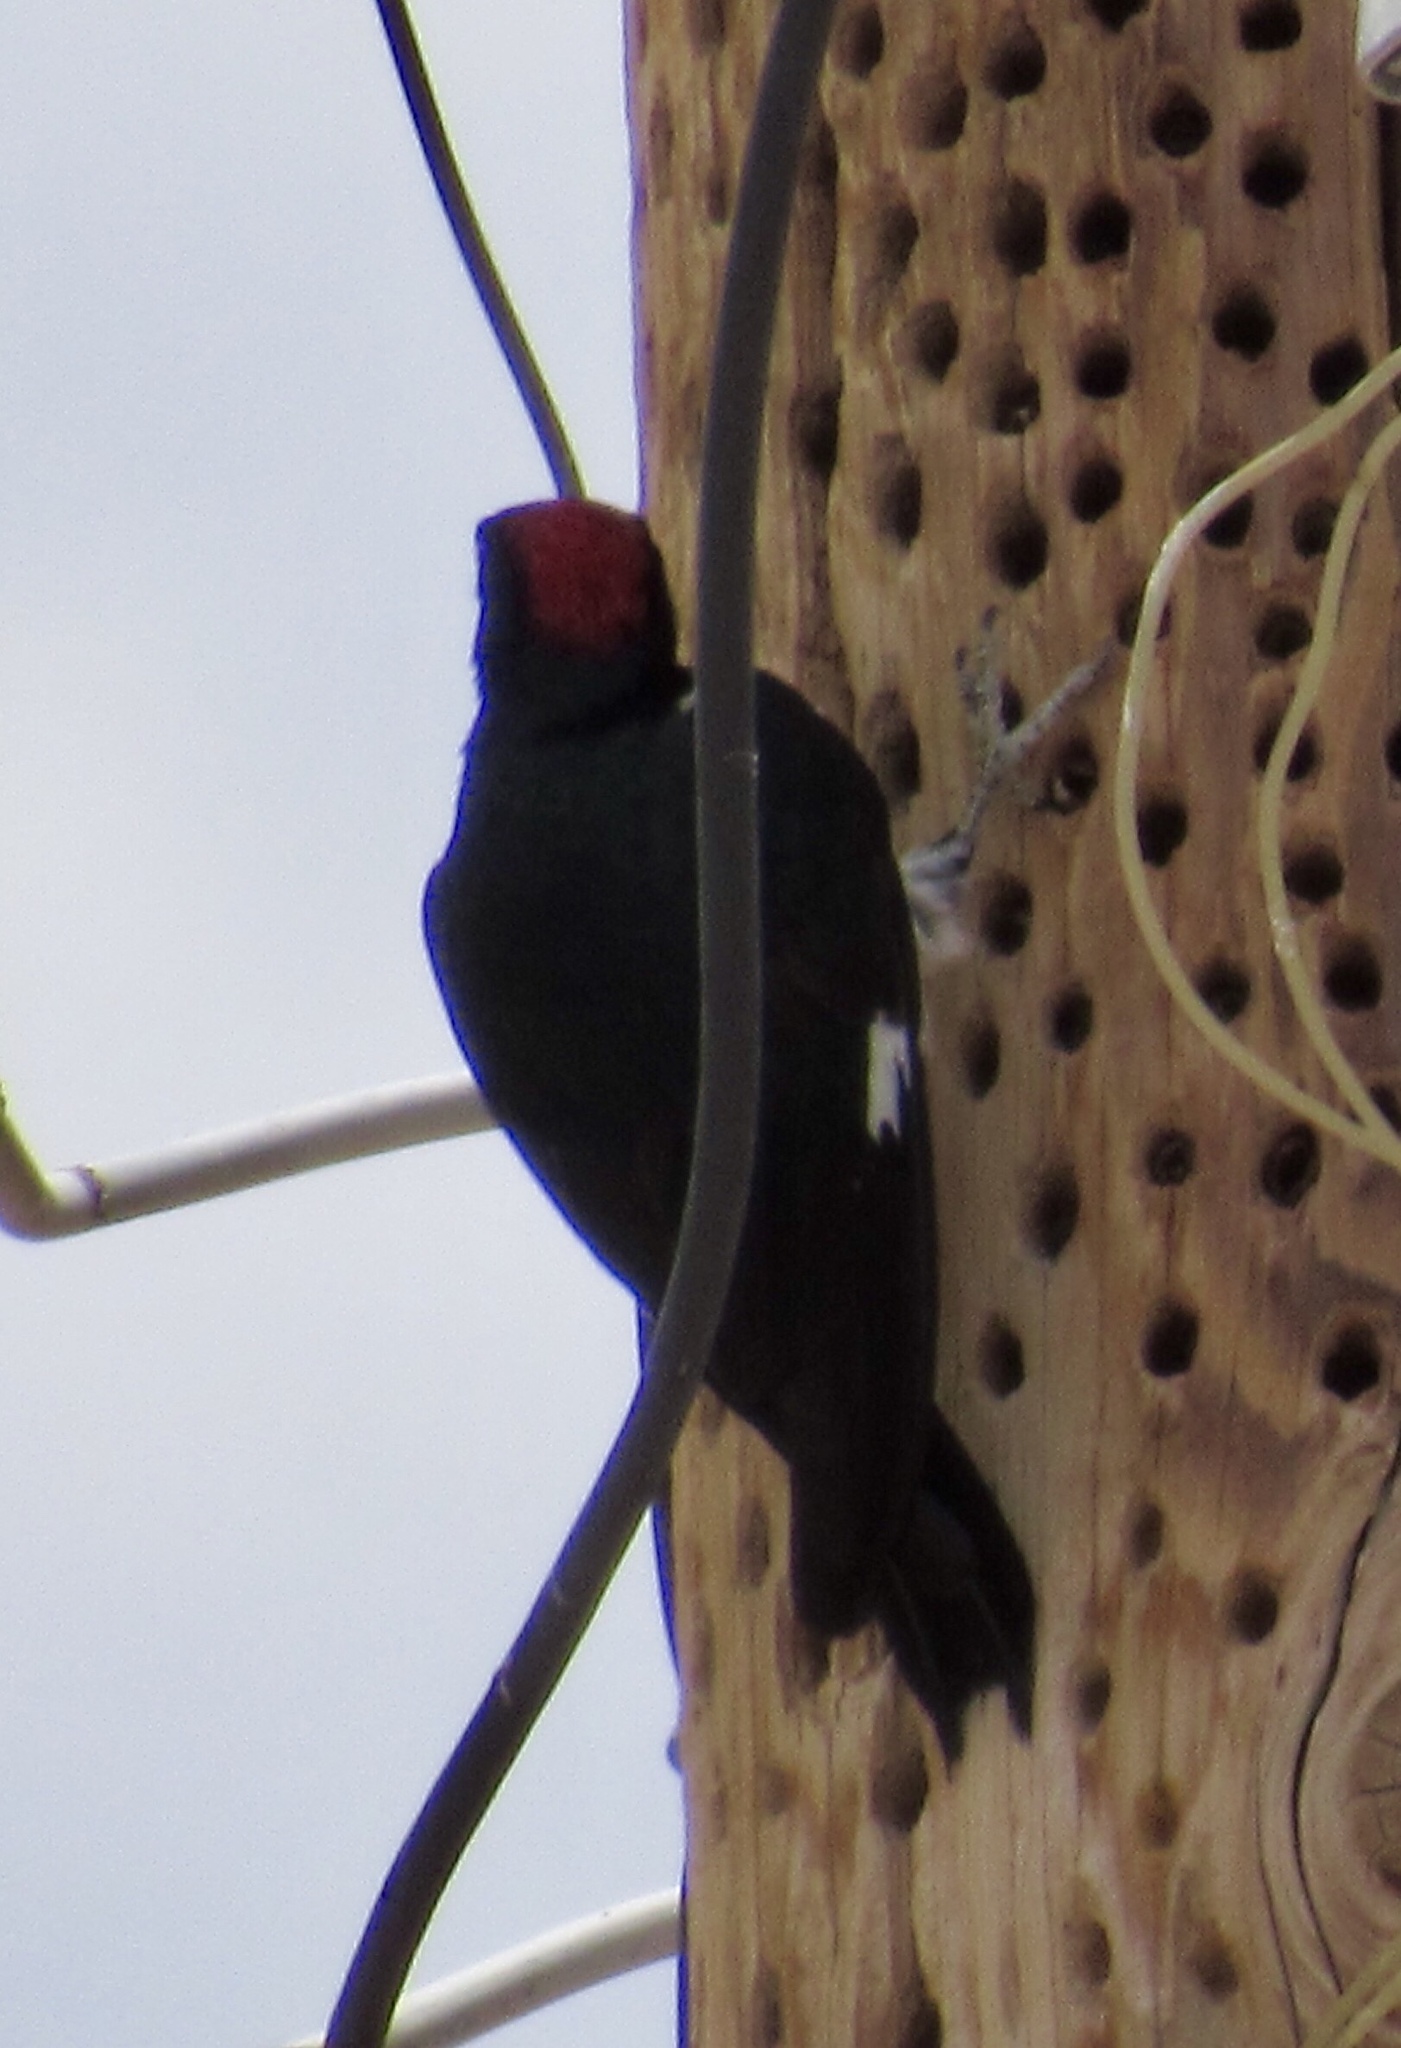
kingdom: Animalia
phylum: Chordata
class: Aves
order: Piciformes
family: Picidae
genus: Melanerpes
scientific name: Melanerpes formicivorus
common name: Acorn woodpecker
